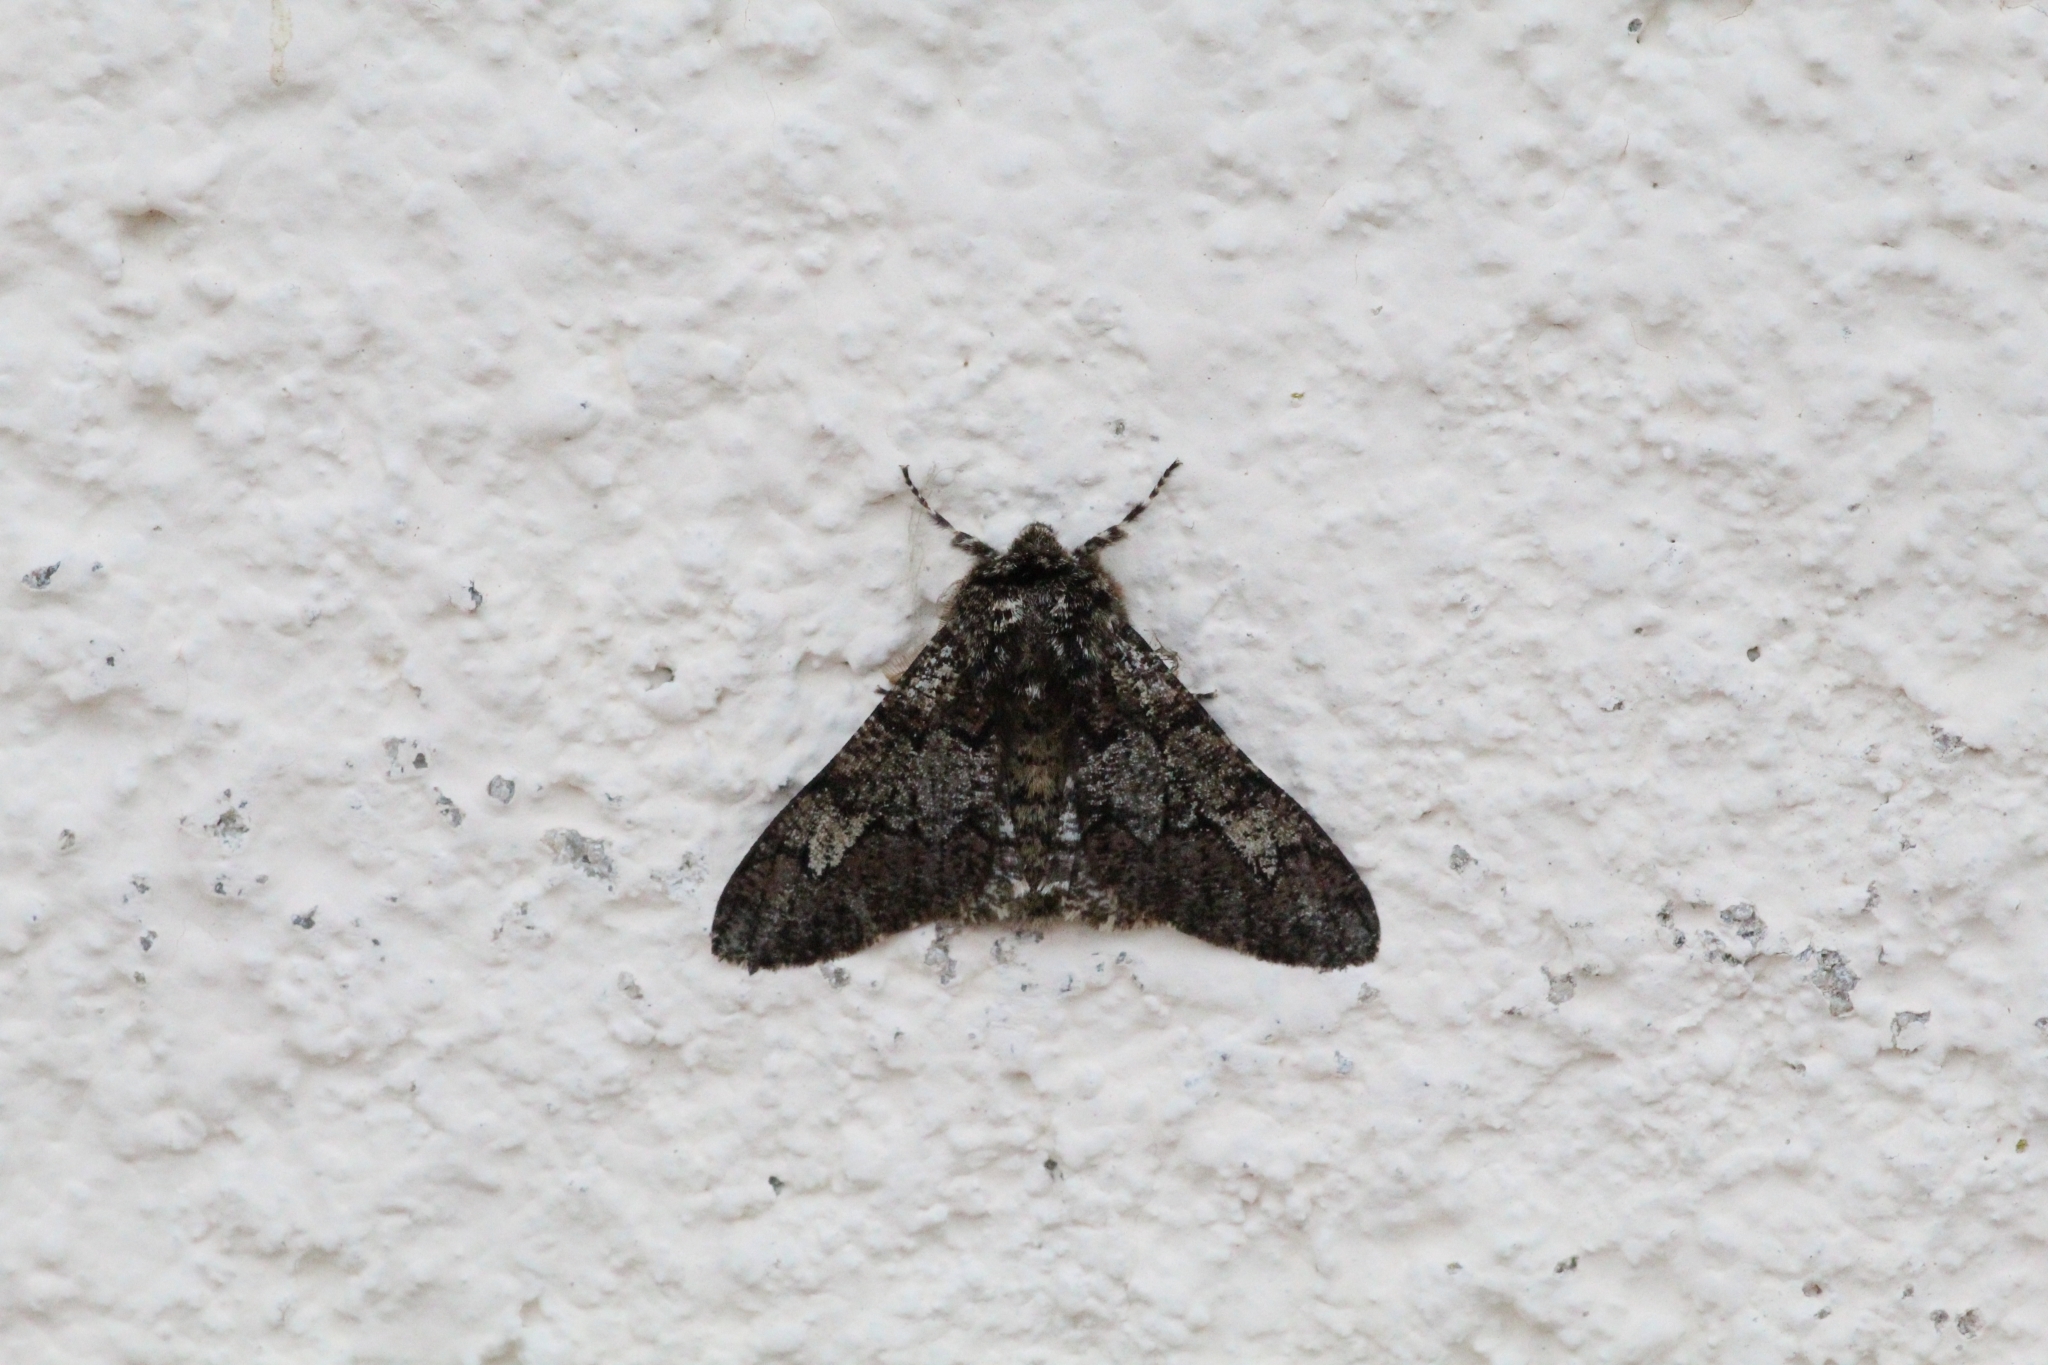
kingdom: Animalia
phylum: Arthropoda
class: Insecta
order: Lepidoptera
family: Geometridae
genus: Biston
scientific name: Biston strataria
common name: Oak beauty
